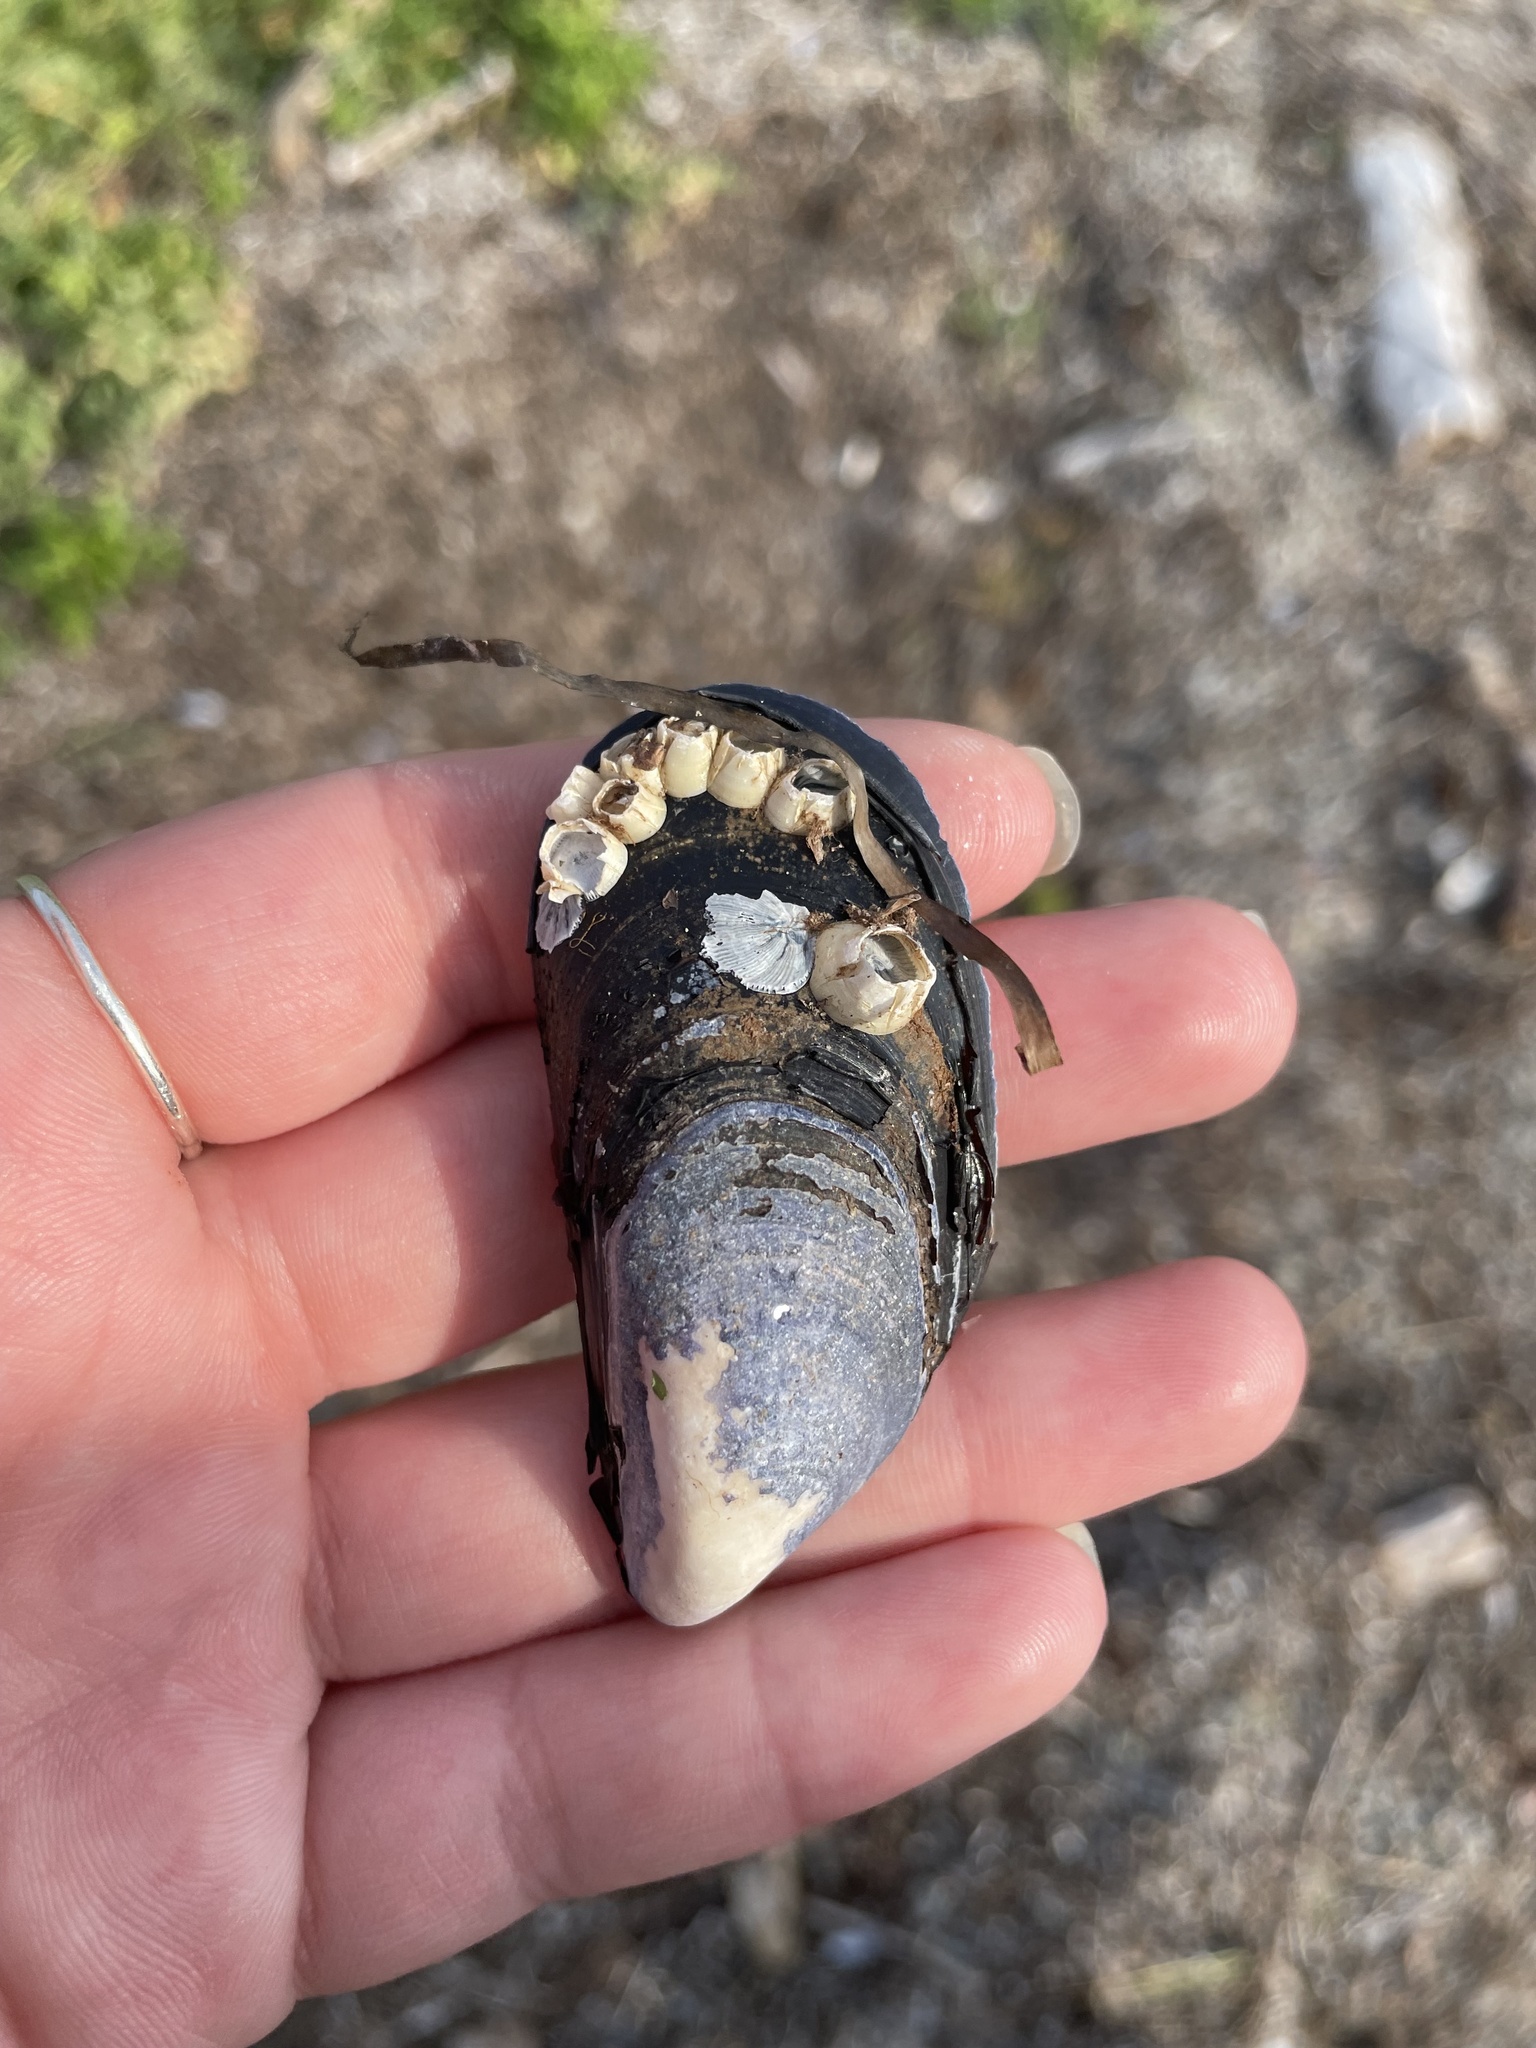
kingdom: Animalia
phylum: Mollusca
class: Bivalvia
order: Mytilida
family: Mytilidae
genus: Mytilus
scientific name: Mytilus
